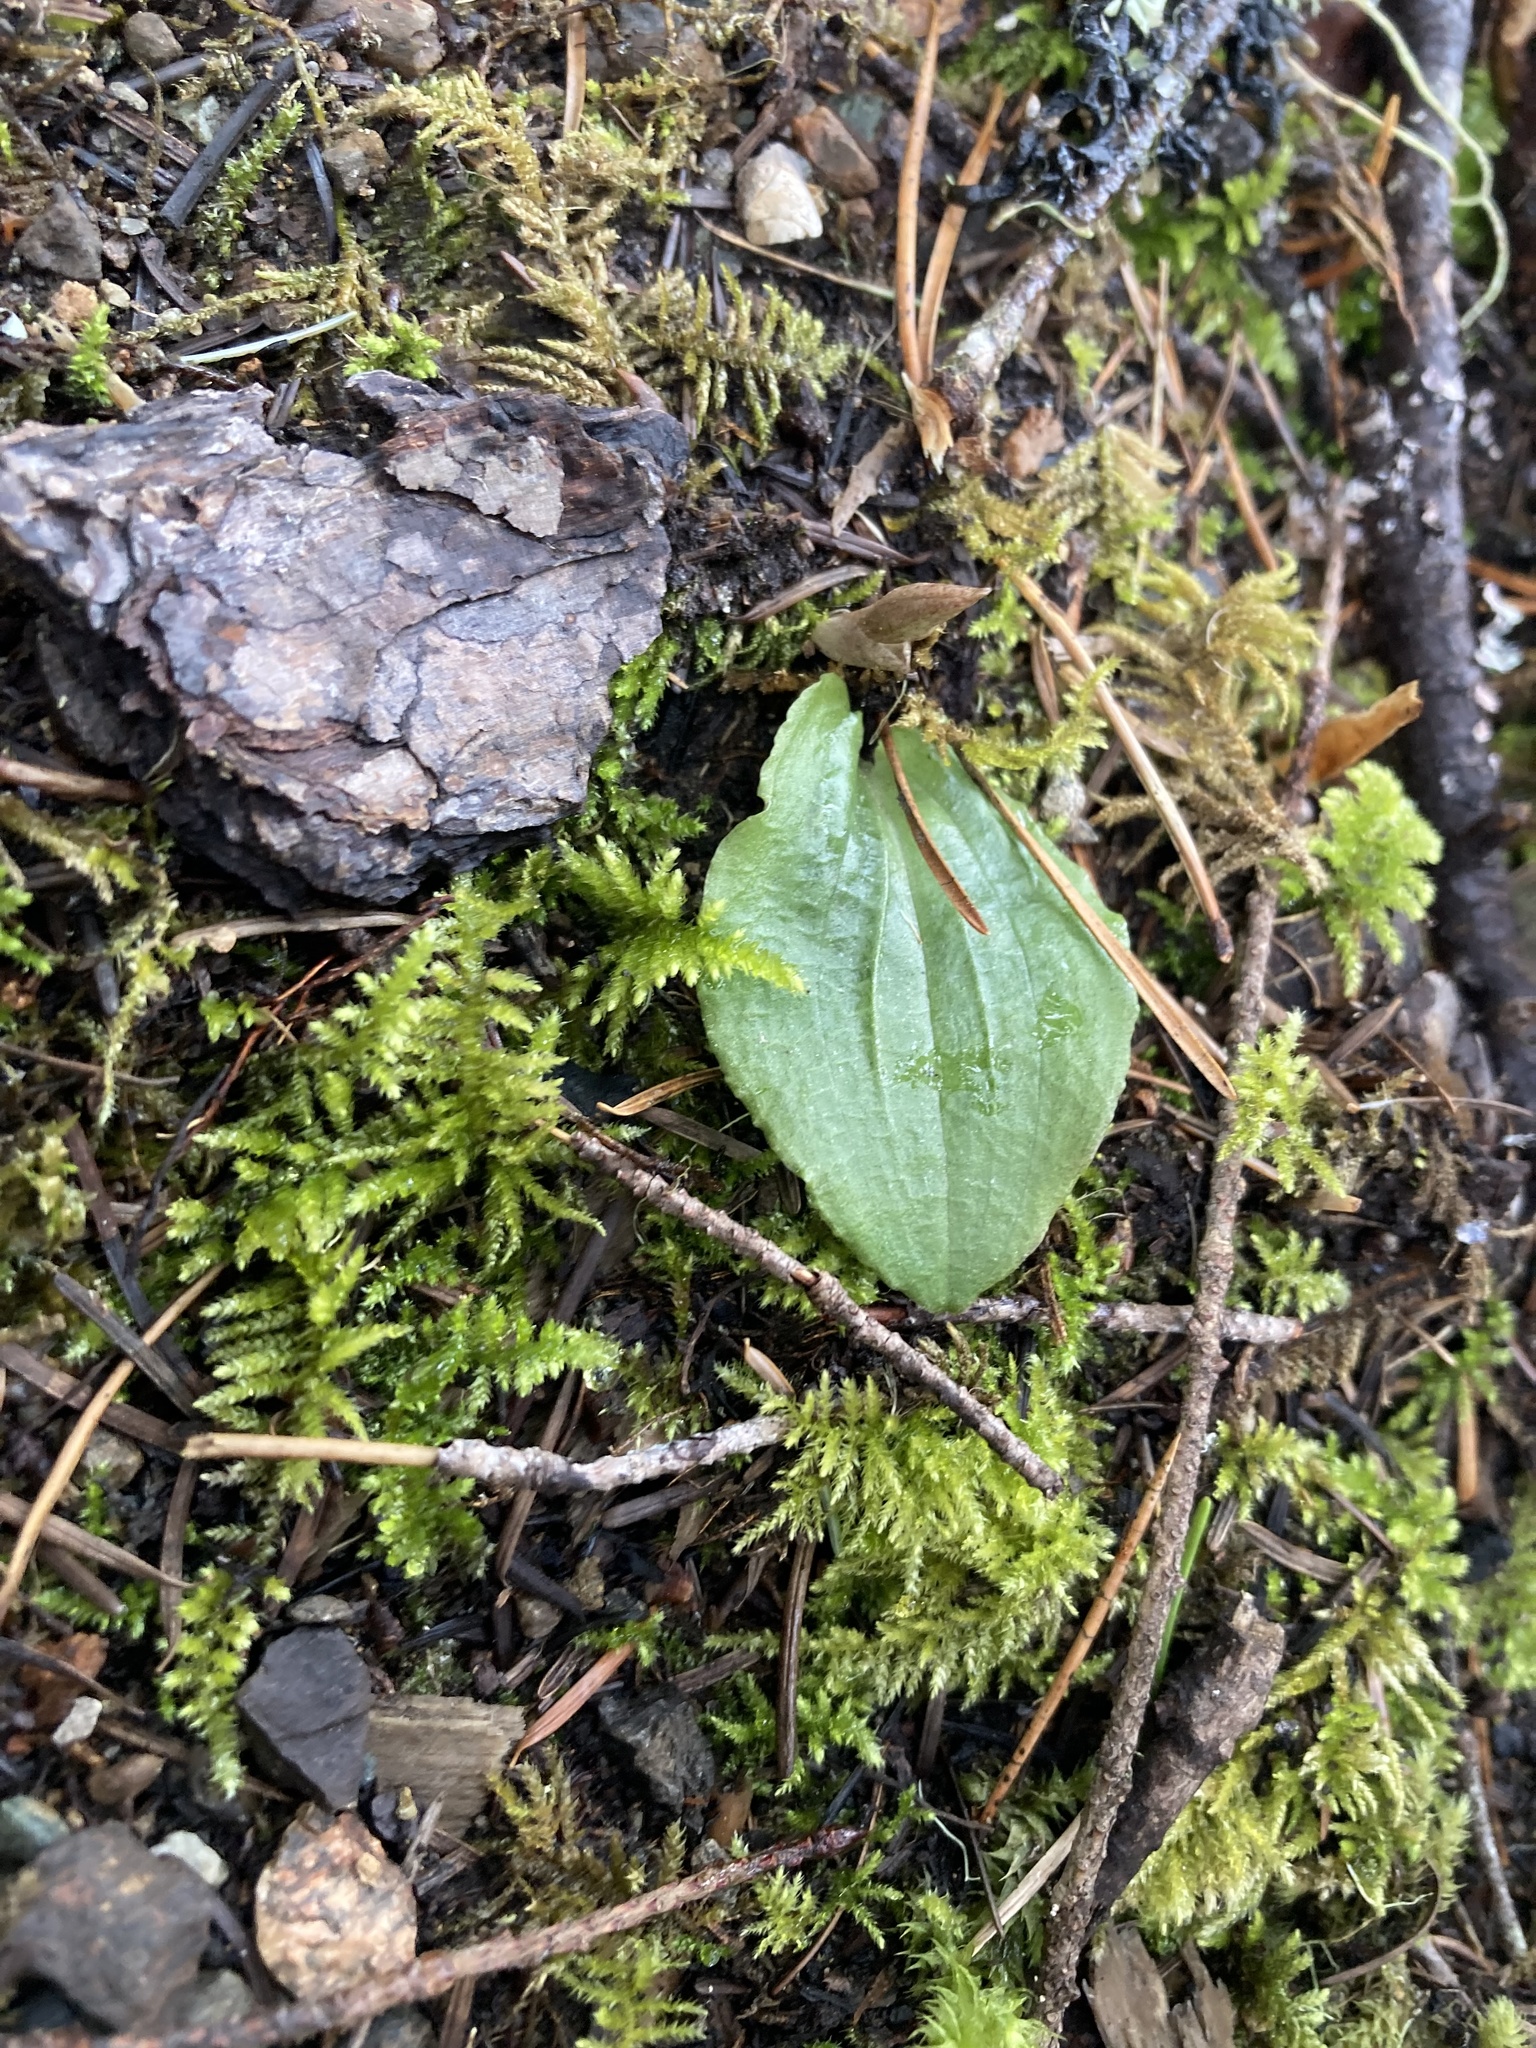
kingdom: Plantae
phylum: Tracheophyta
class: Liliopsida
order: Asparagales
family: Orchidaceae
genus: Calypso
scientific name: Calypso bulbosa
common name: Calypso
